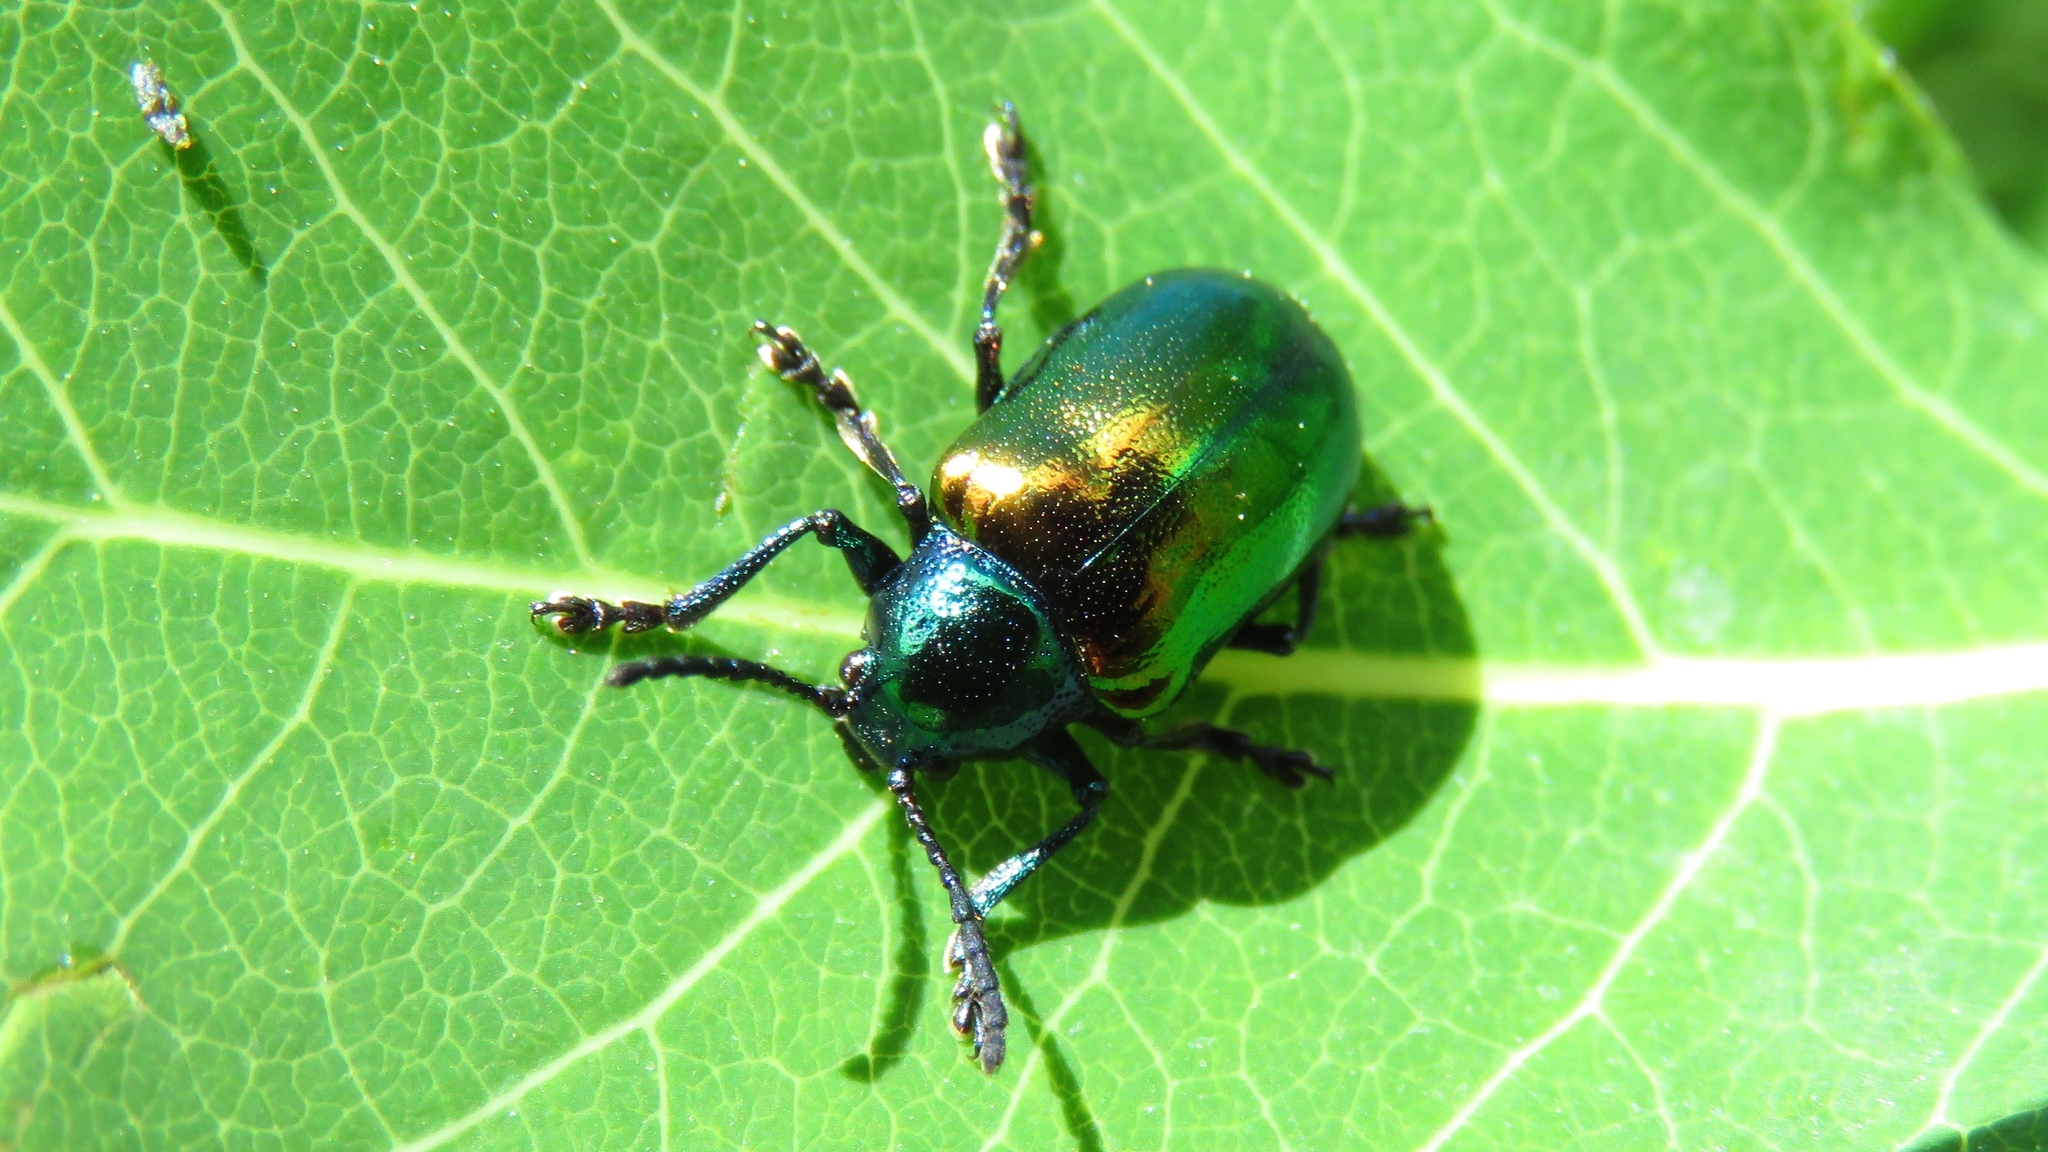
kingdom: Animalia
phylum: Arthropoda
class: Insecta
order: Coleoptera
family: Chrysomelidae
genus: Chrysochus
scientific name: Chrysochus auratus
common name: Dogbane leaf beetle
